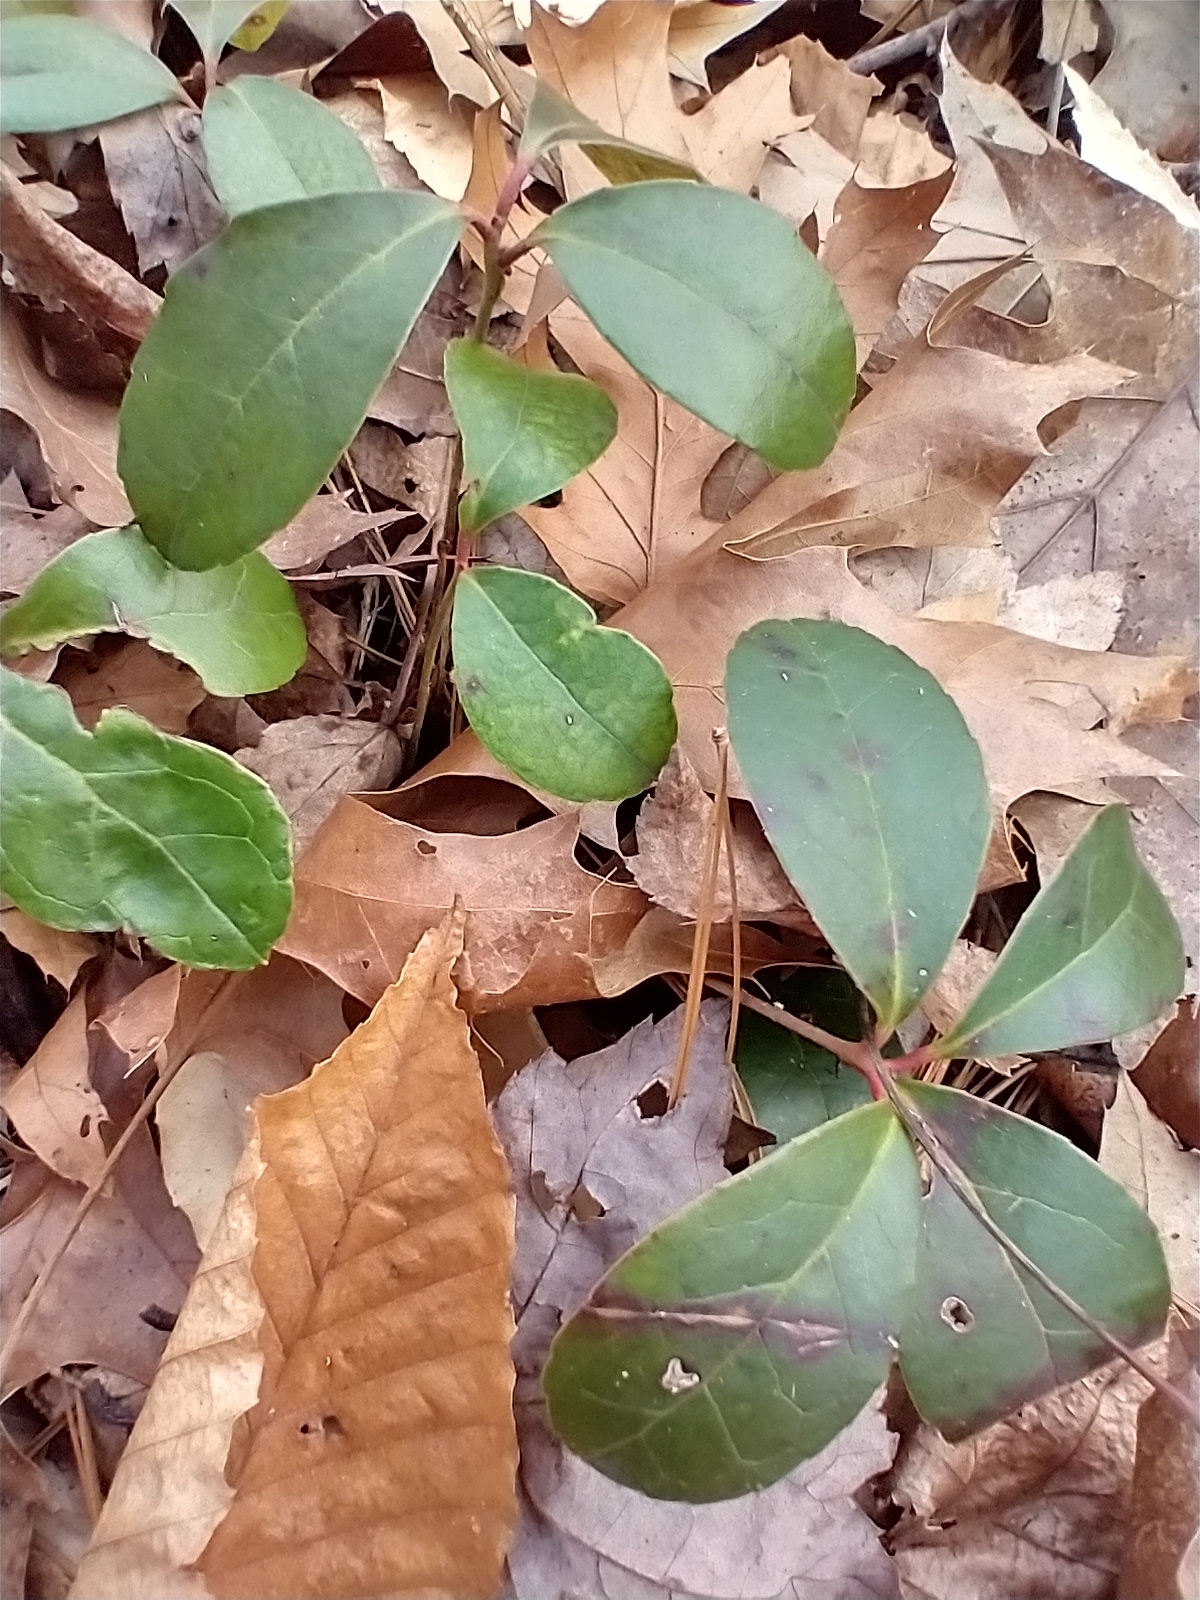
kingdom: Plantae
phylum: Tracheophyta
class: Magnoliopsida
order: Ericales
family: Ericaceae
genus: Gaultheria
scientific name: Gaultheria procumbens
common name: Checkerberry
